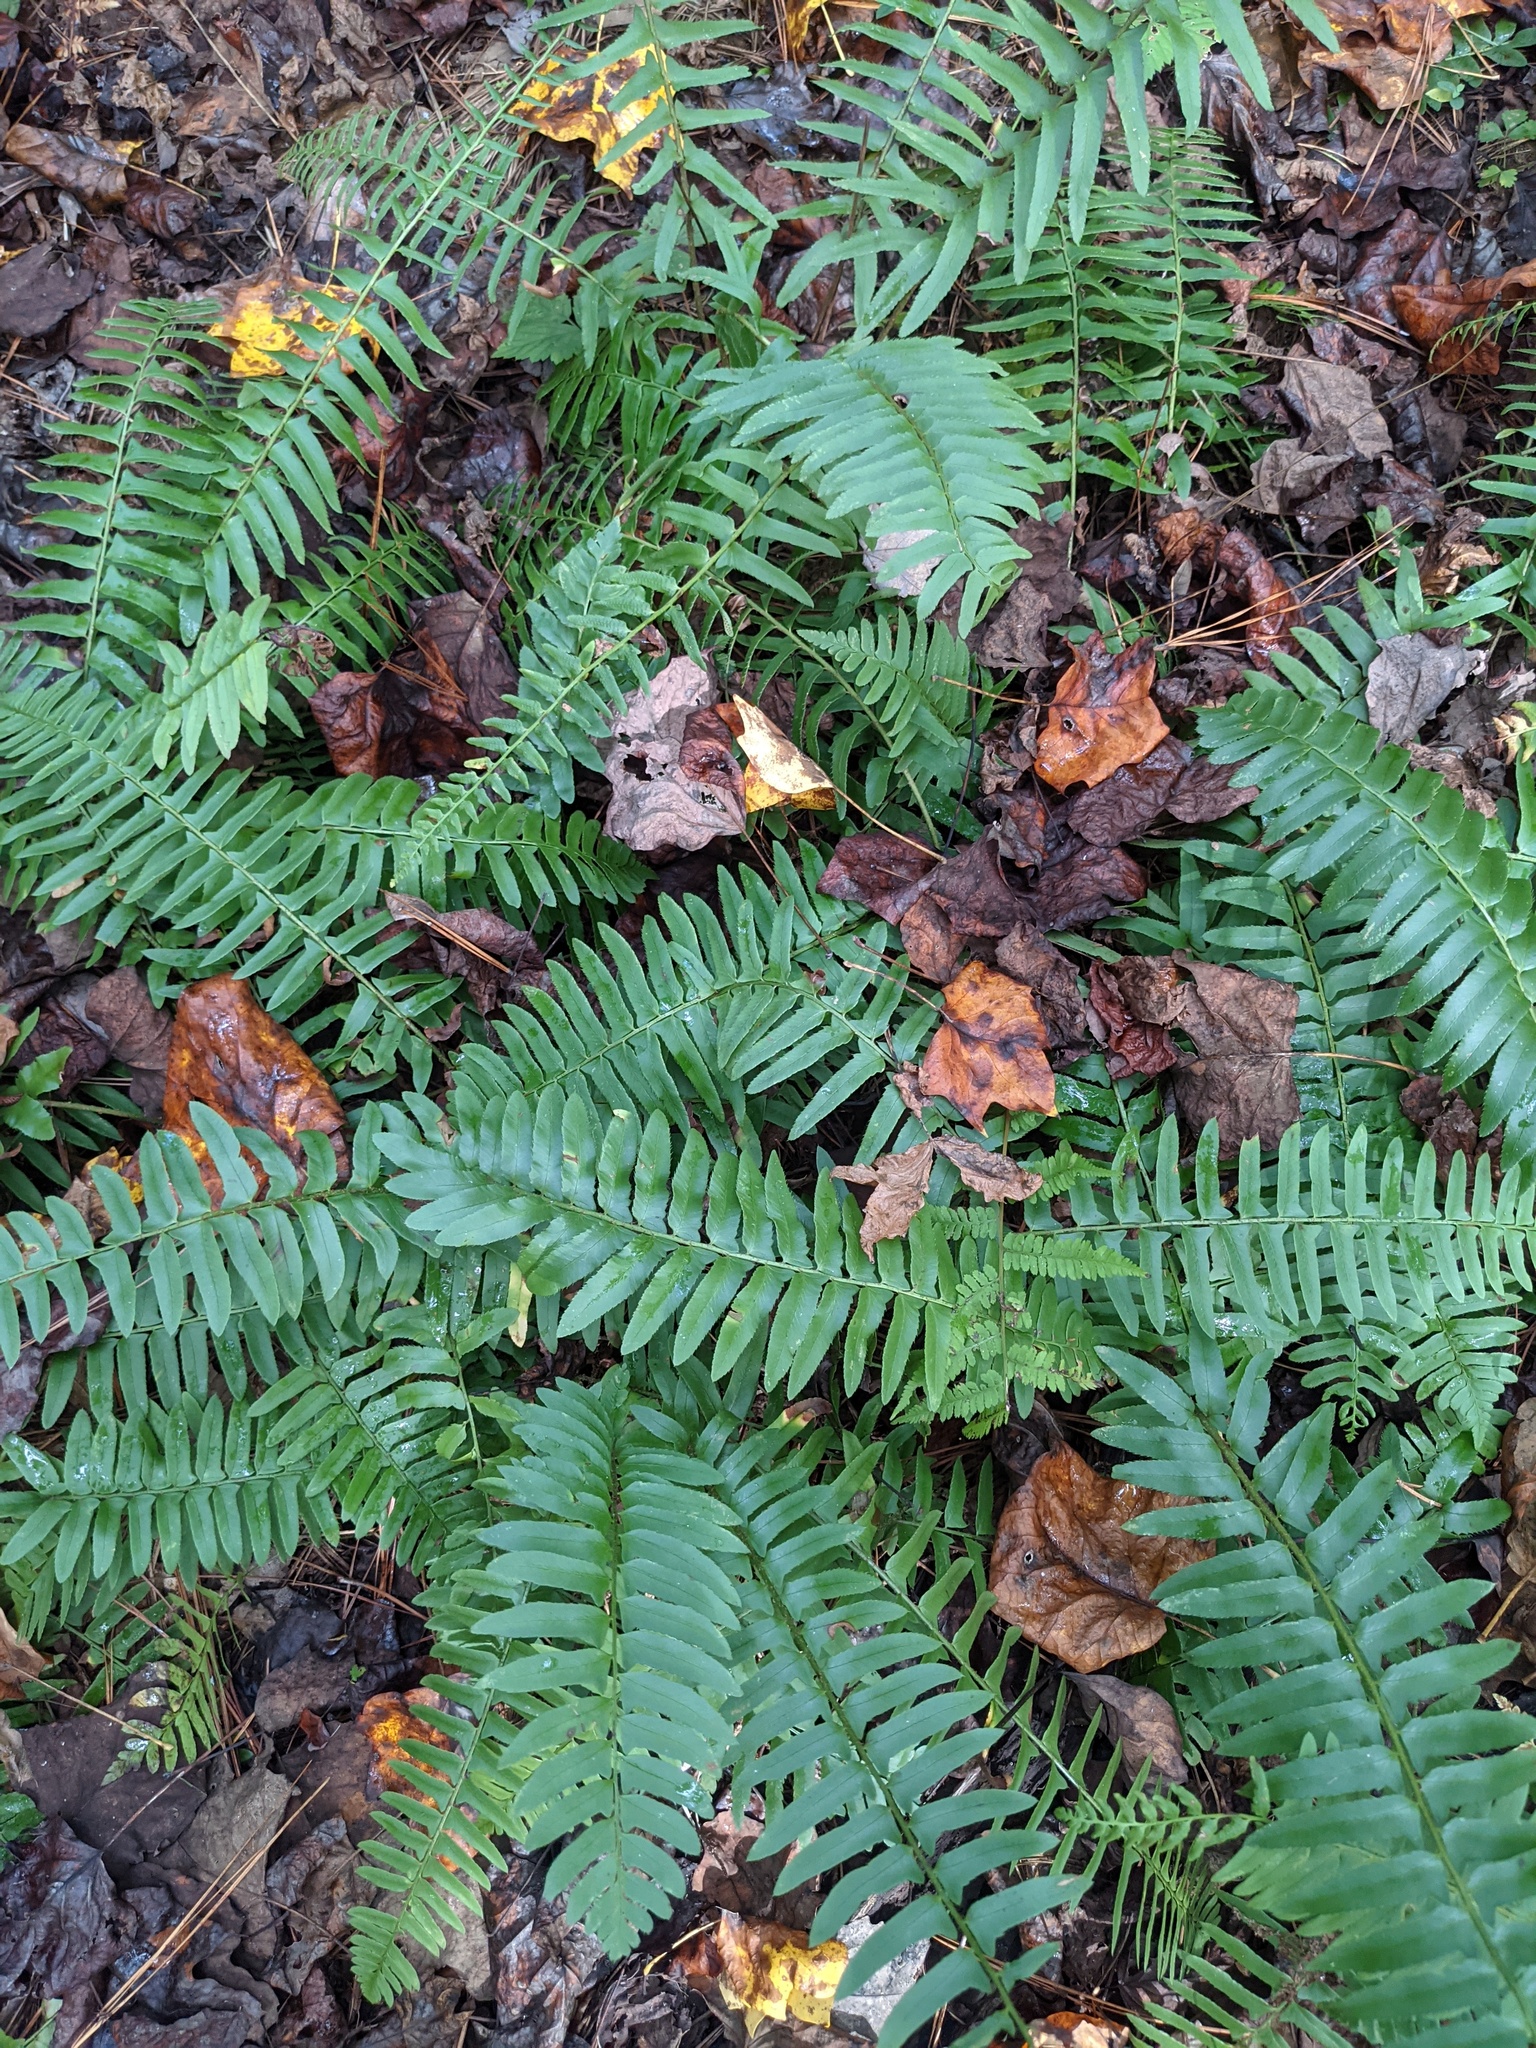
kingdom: Plantae
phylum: Tracheophyta
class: Polypodiopsida
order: Polypodiales
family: Dryopteridaceae
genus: Polystichum
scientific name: Polystichum acrostichoides
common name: Christmas fern
